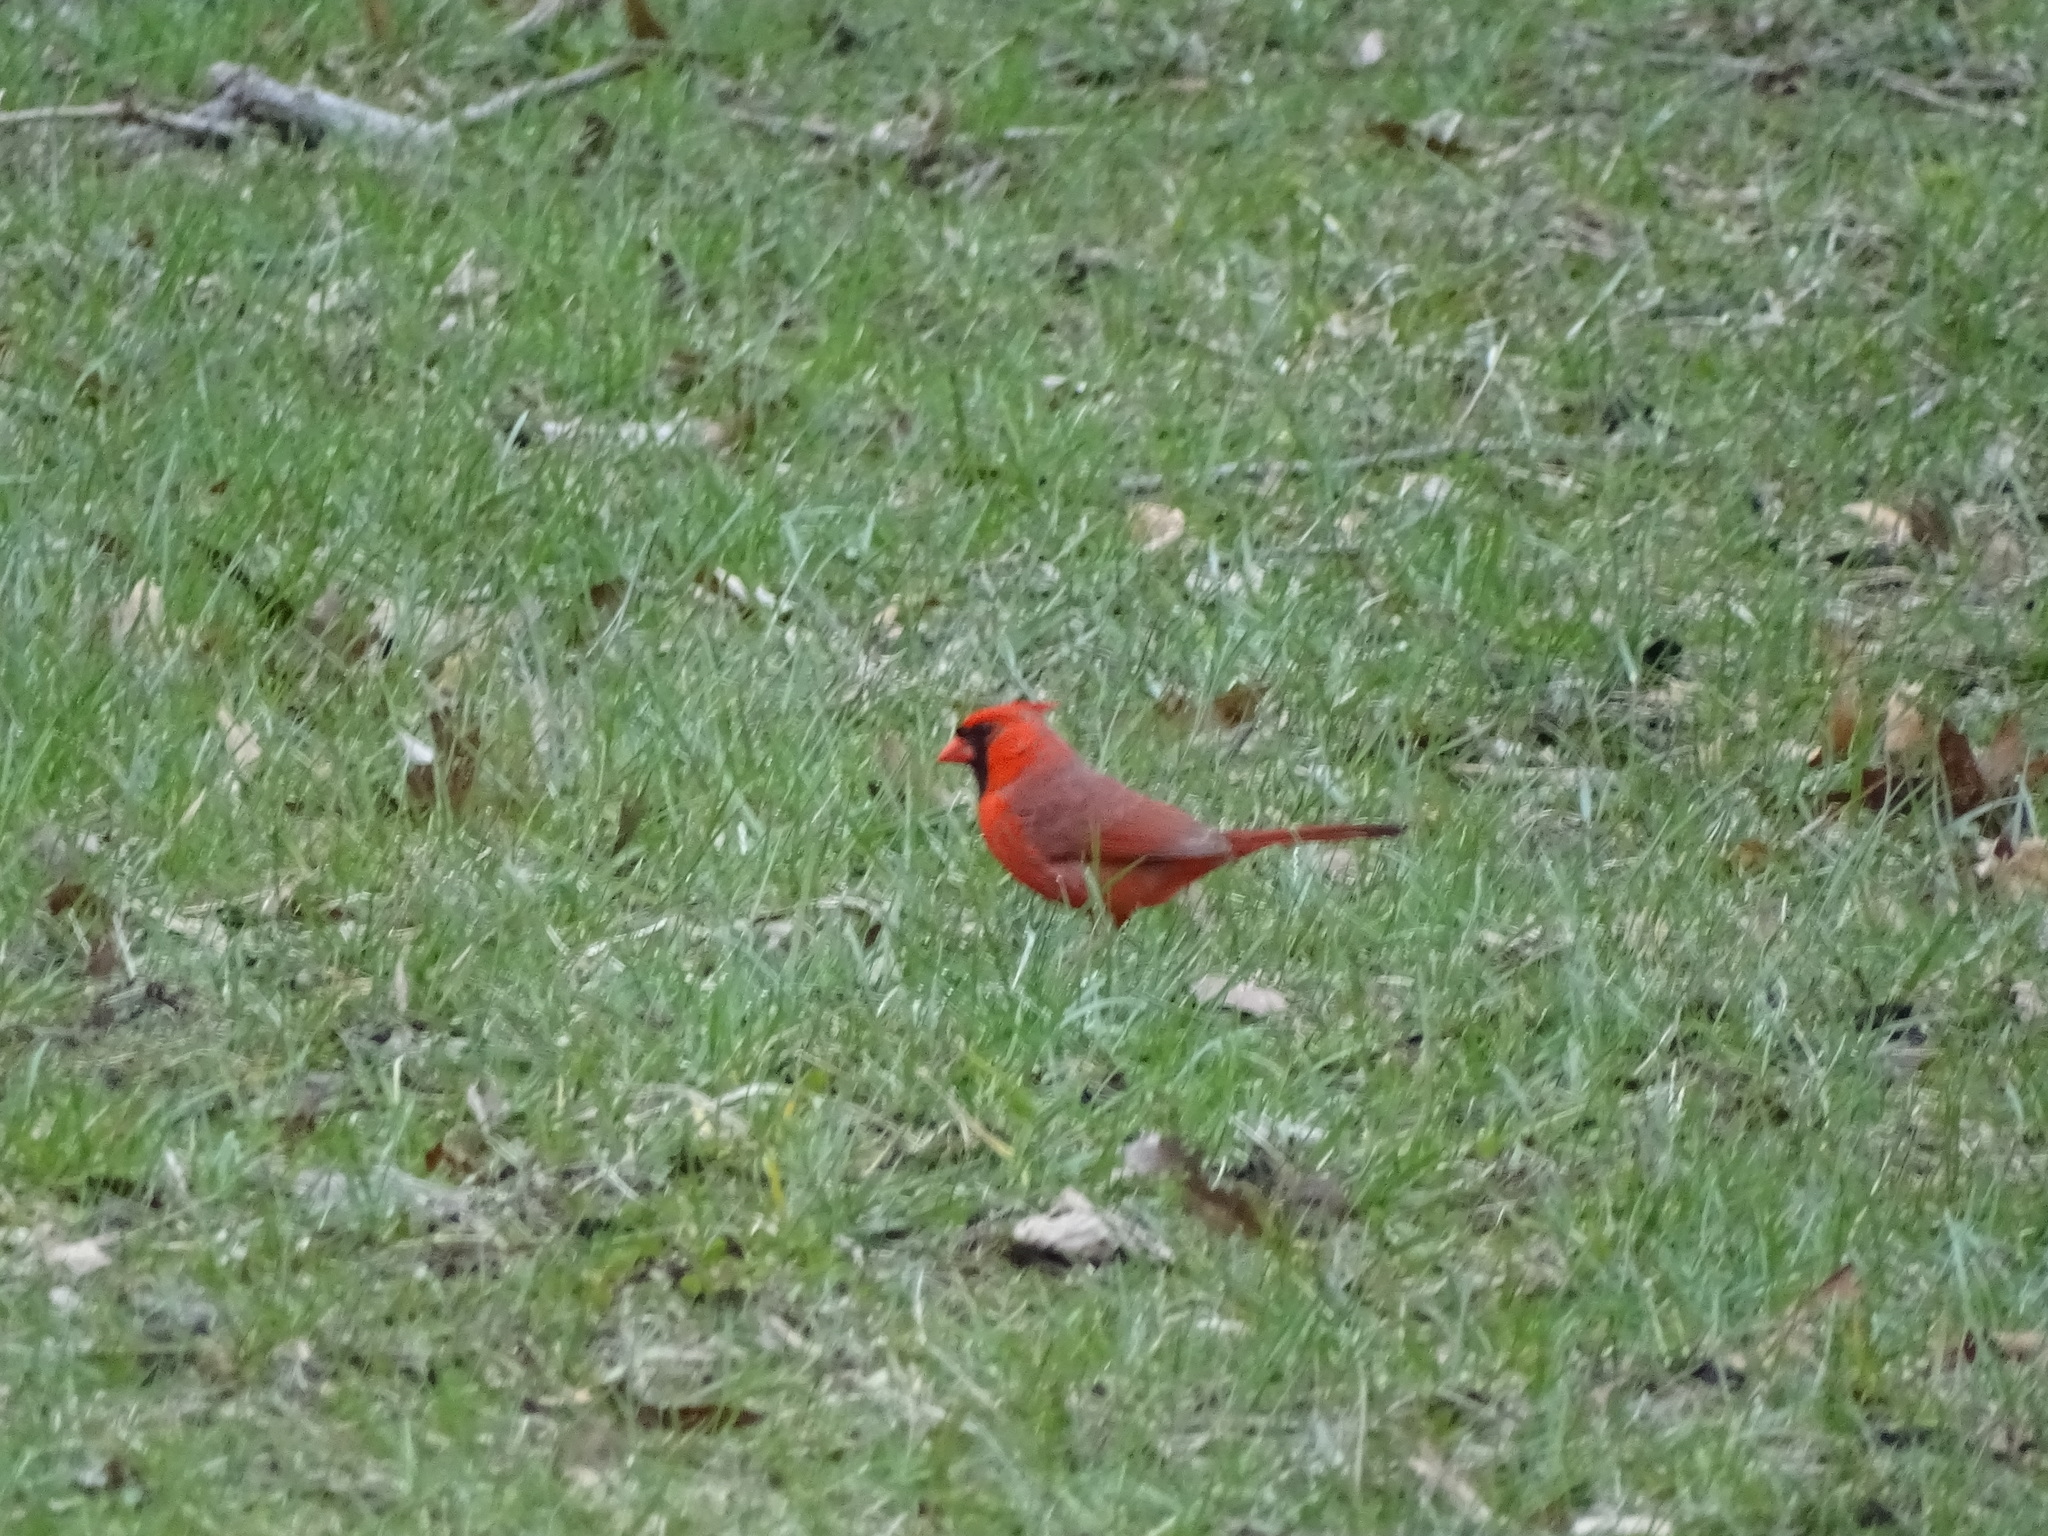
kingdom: Animalia
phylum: Chordata
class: Aves
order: Passeriformes
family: Cardinalidae
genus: Cardinalis
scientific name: Cardinalis cardinalis
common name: Northern cardinal
